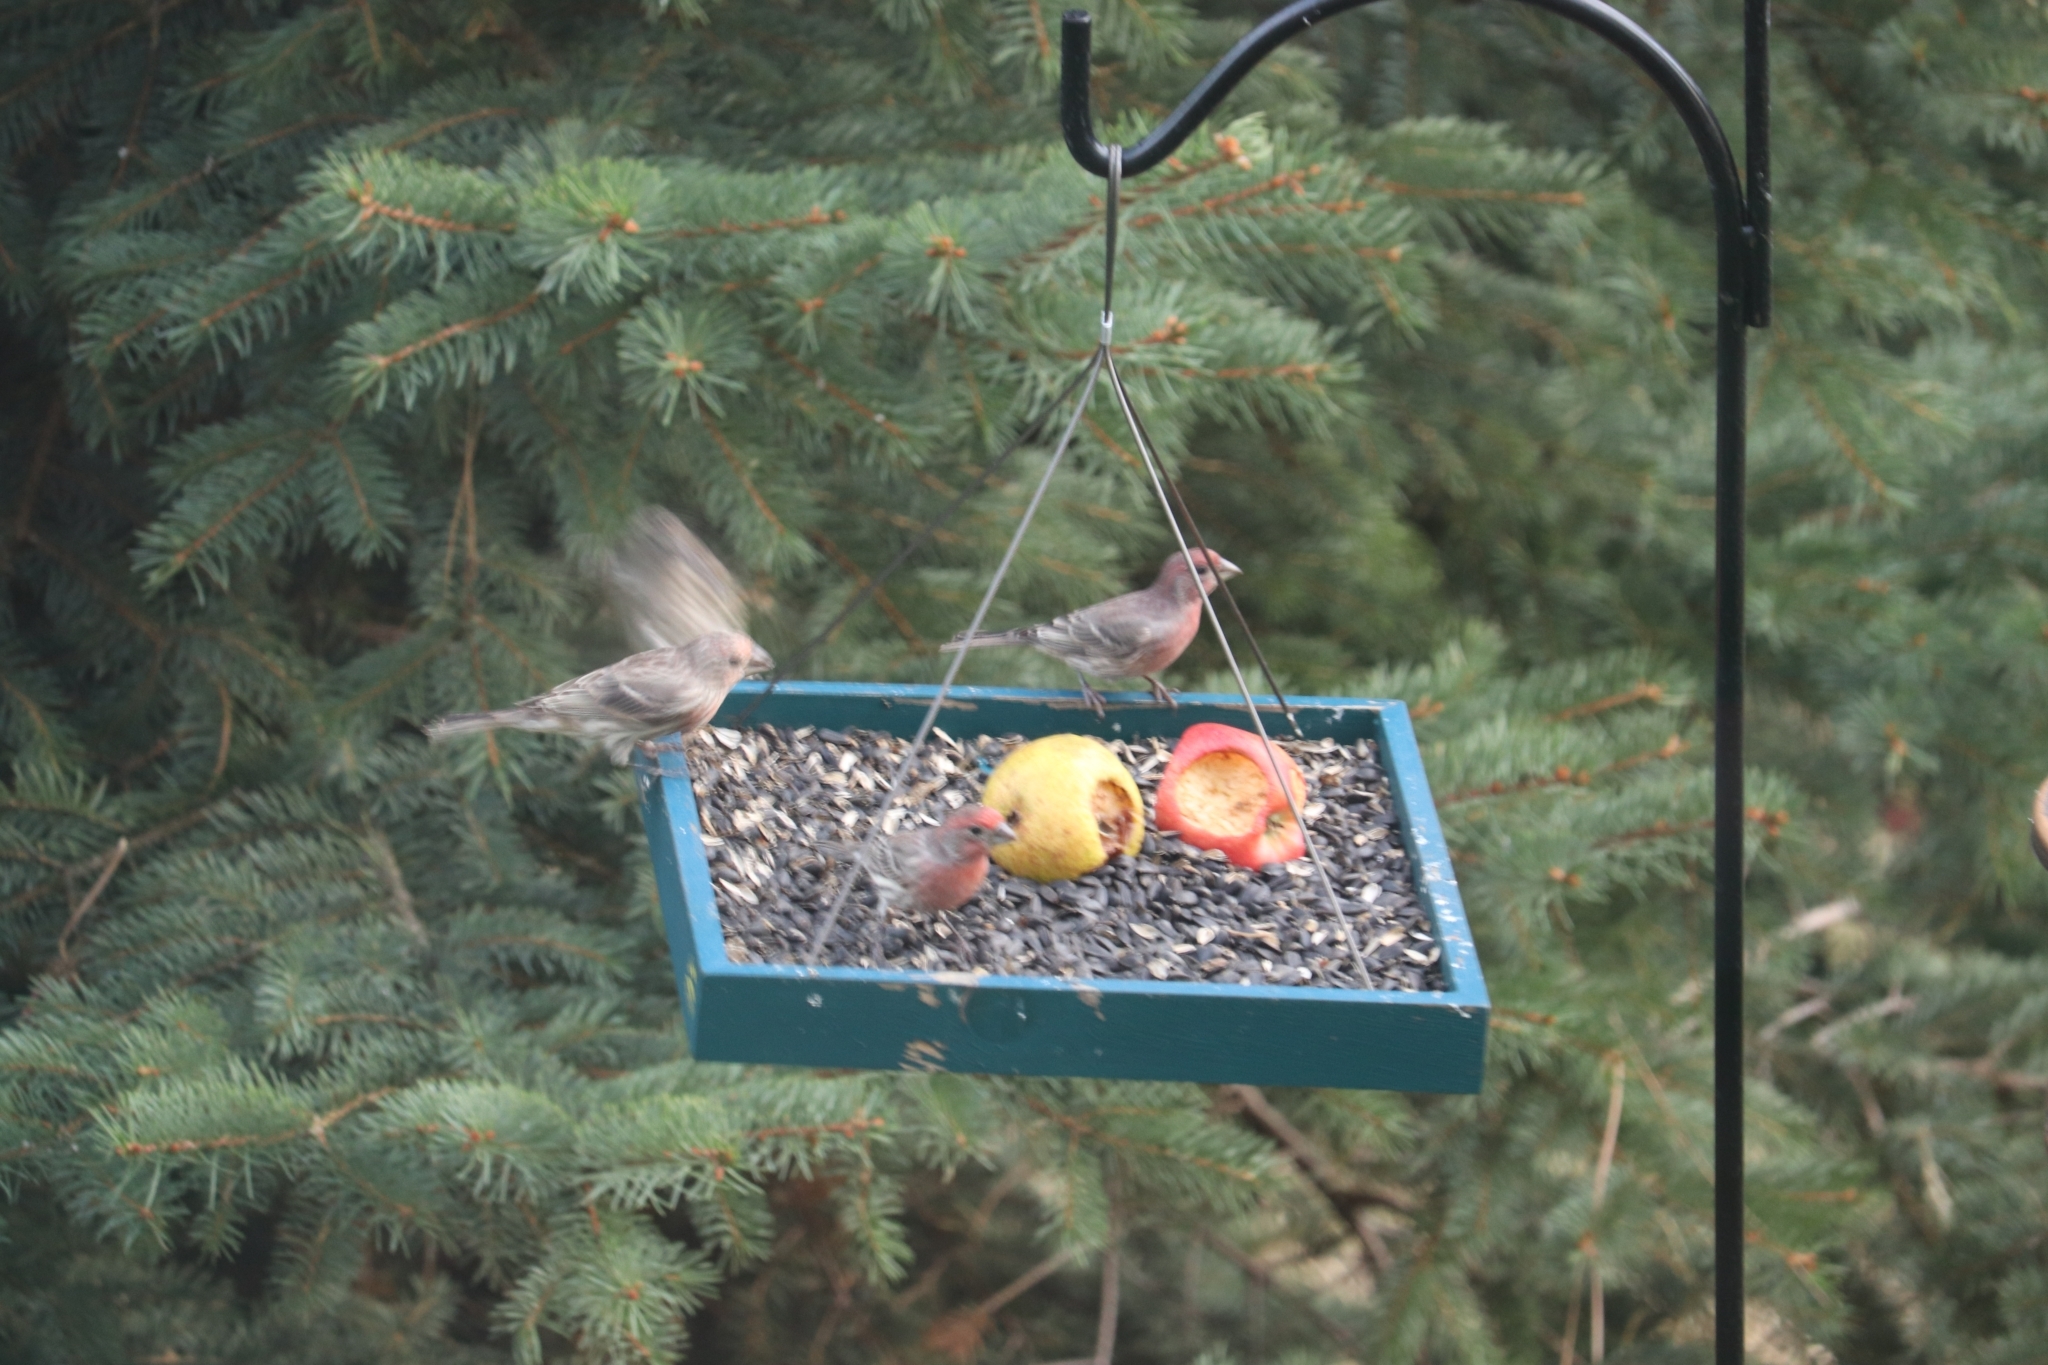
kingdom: Animalia
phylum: Chordata
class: Aves
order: Passeriformes
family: Fringillidae
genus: Haemorhous
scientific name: Haemorhous mexicanus
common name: House finch
